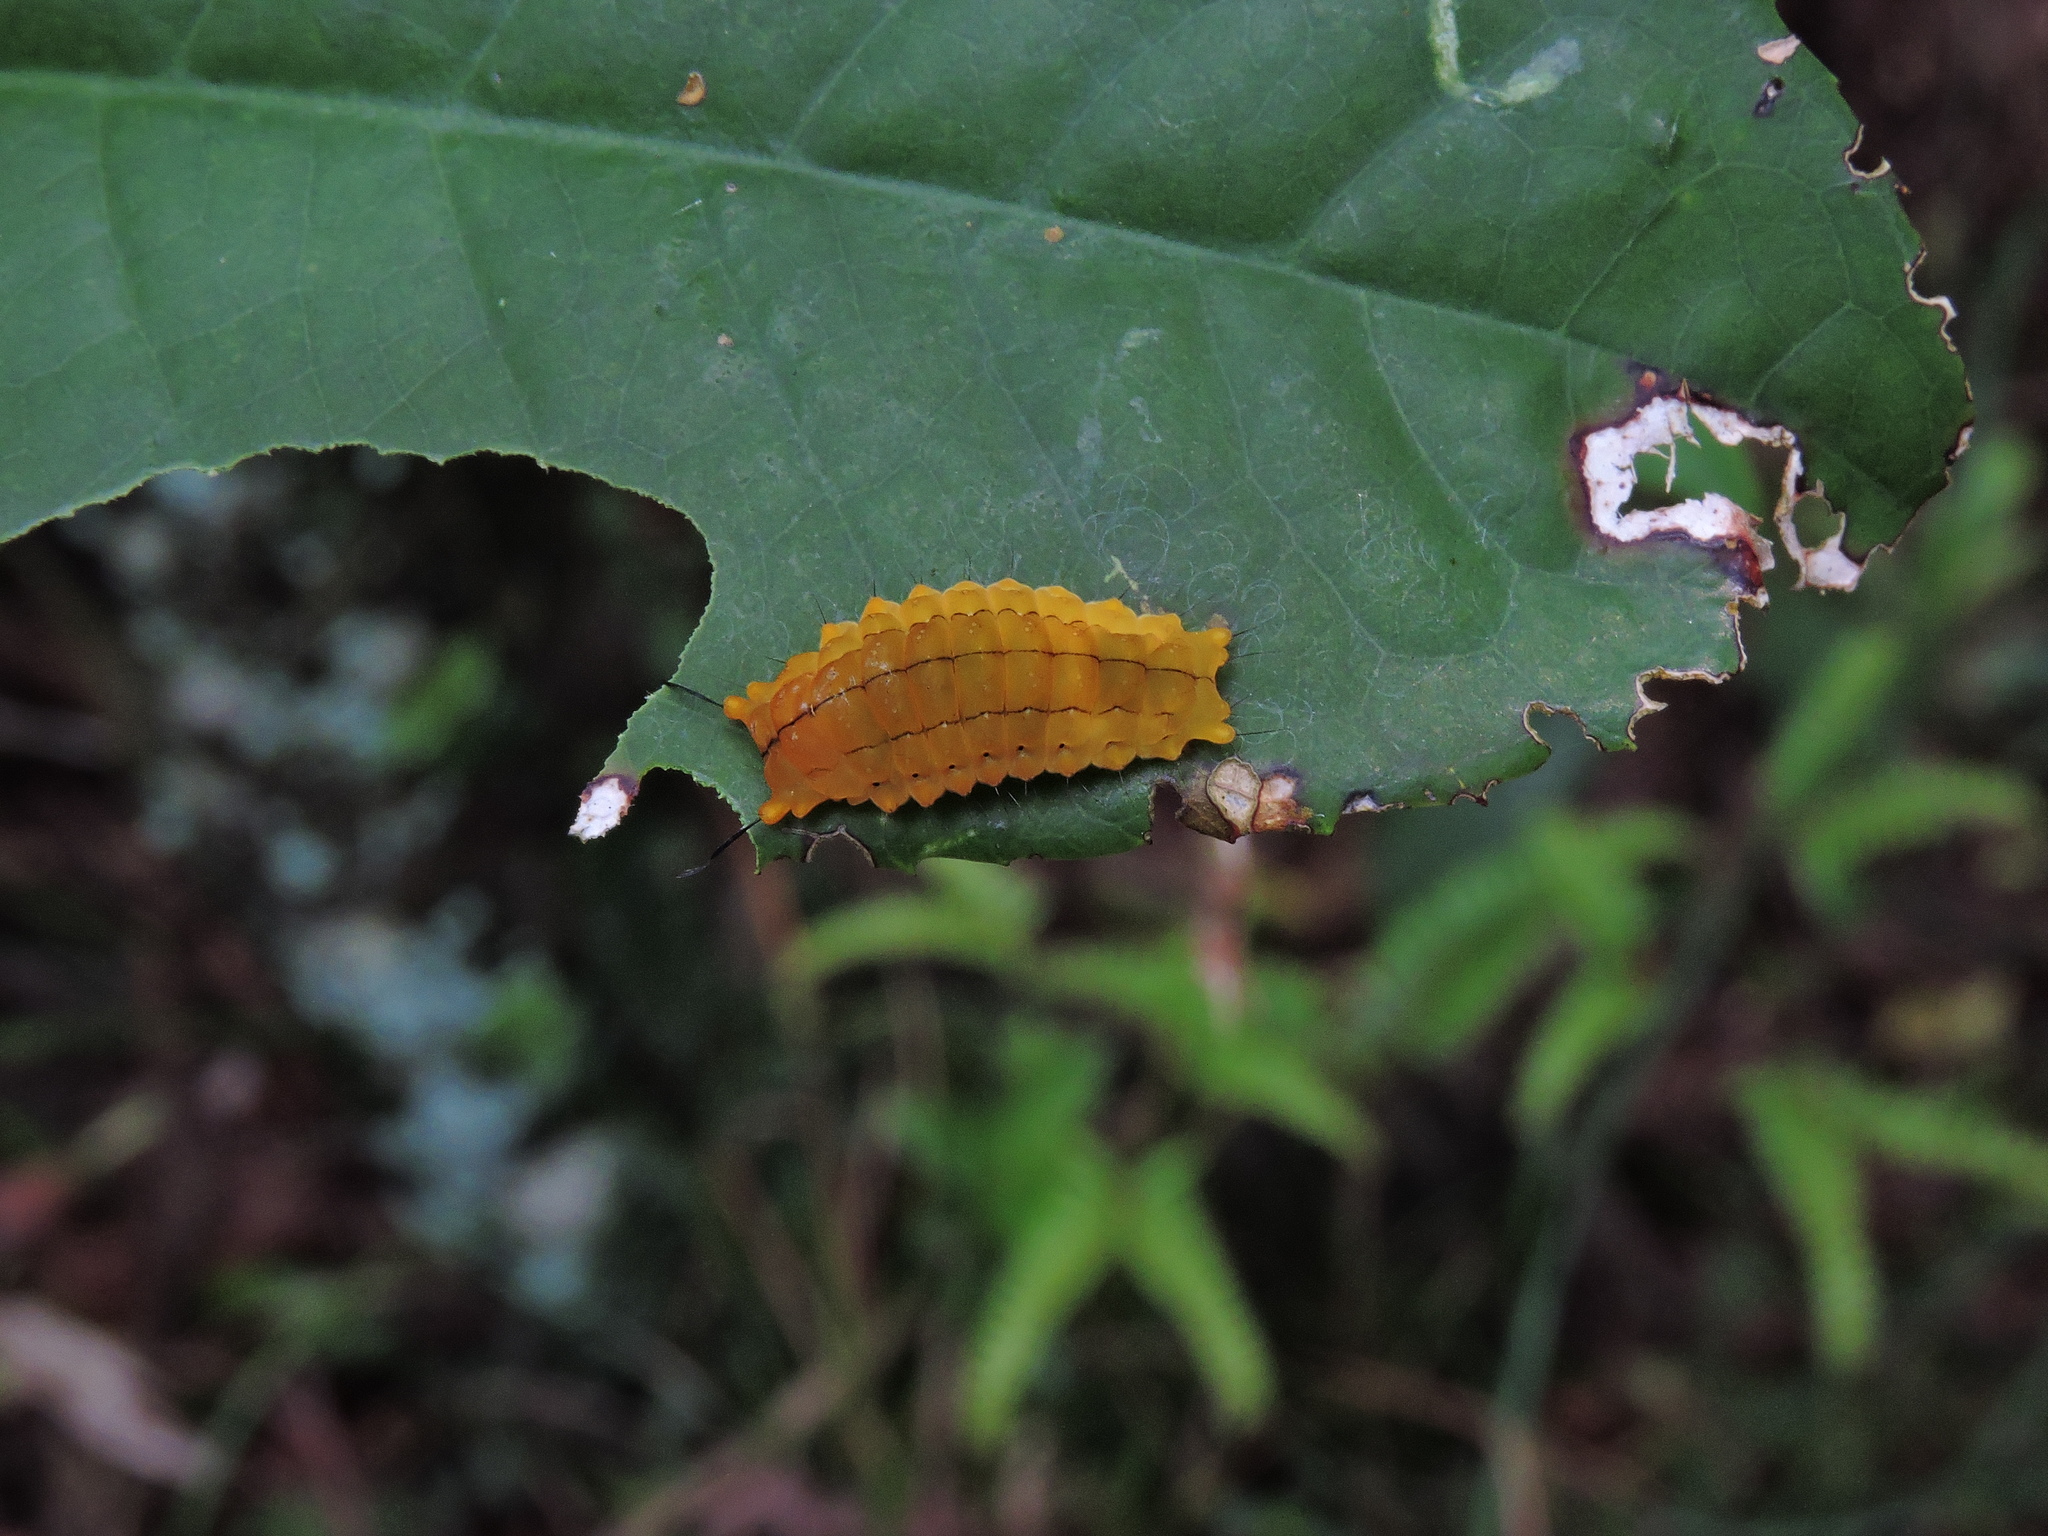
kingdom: Animalia
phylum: Arthropoda
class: Insecta
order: Lepidoptera
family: Zygaenidae
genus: Chalcosia
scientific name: Chalcosia formosana
